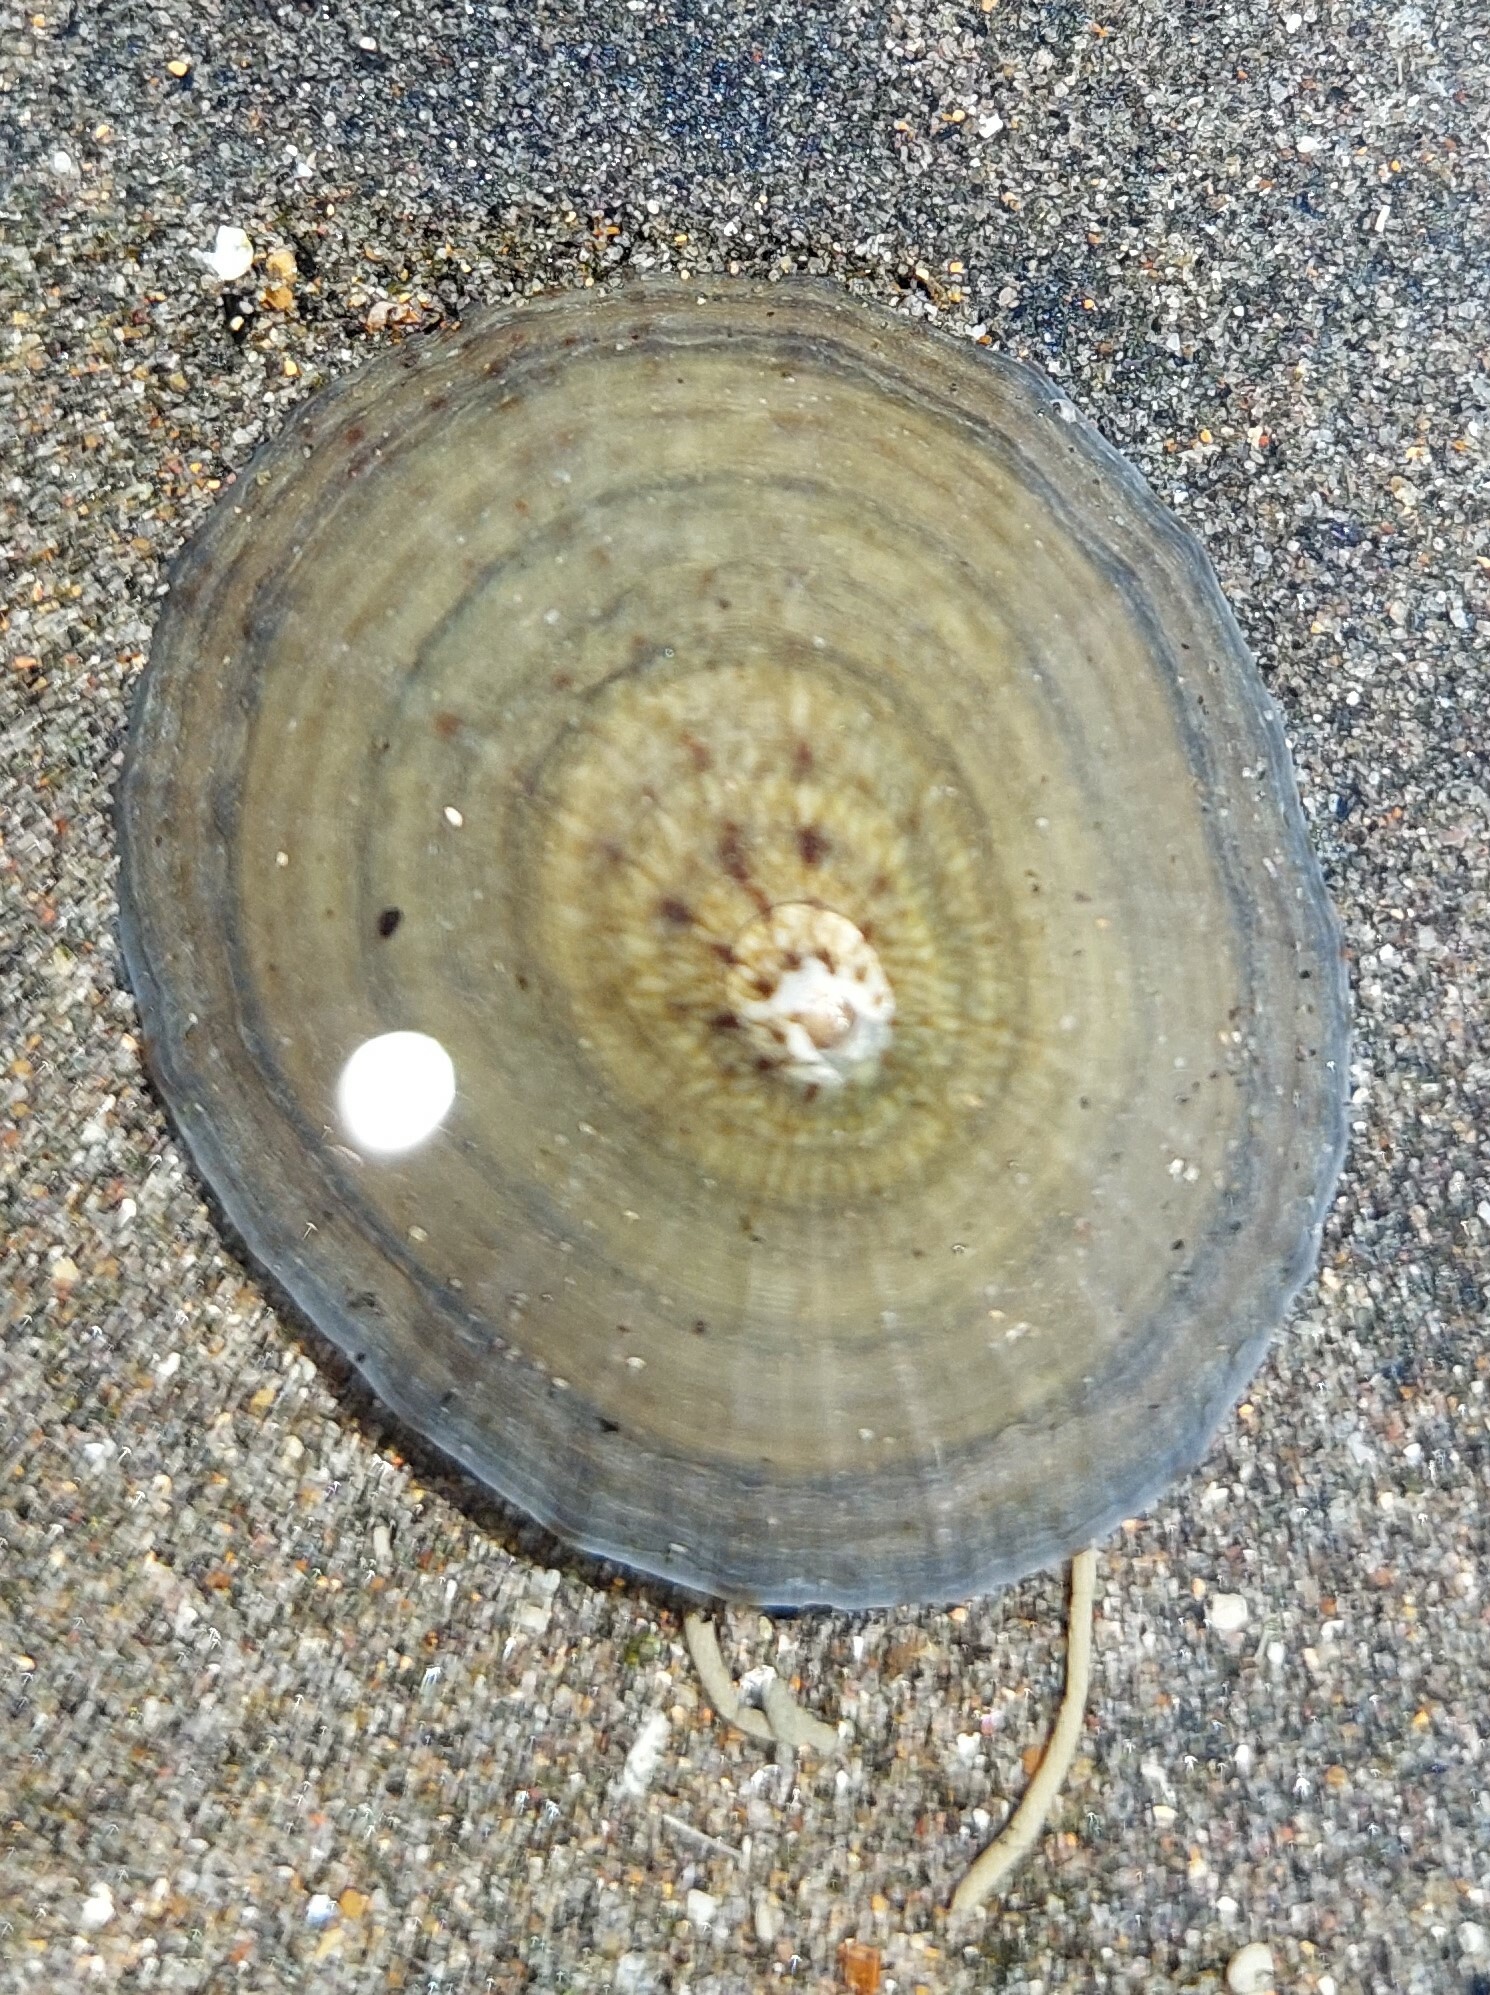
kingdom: Animalia
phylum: Mollusca
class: Gastropoda
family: Nacellidae
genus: Cellana
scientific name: Cellana radians
